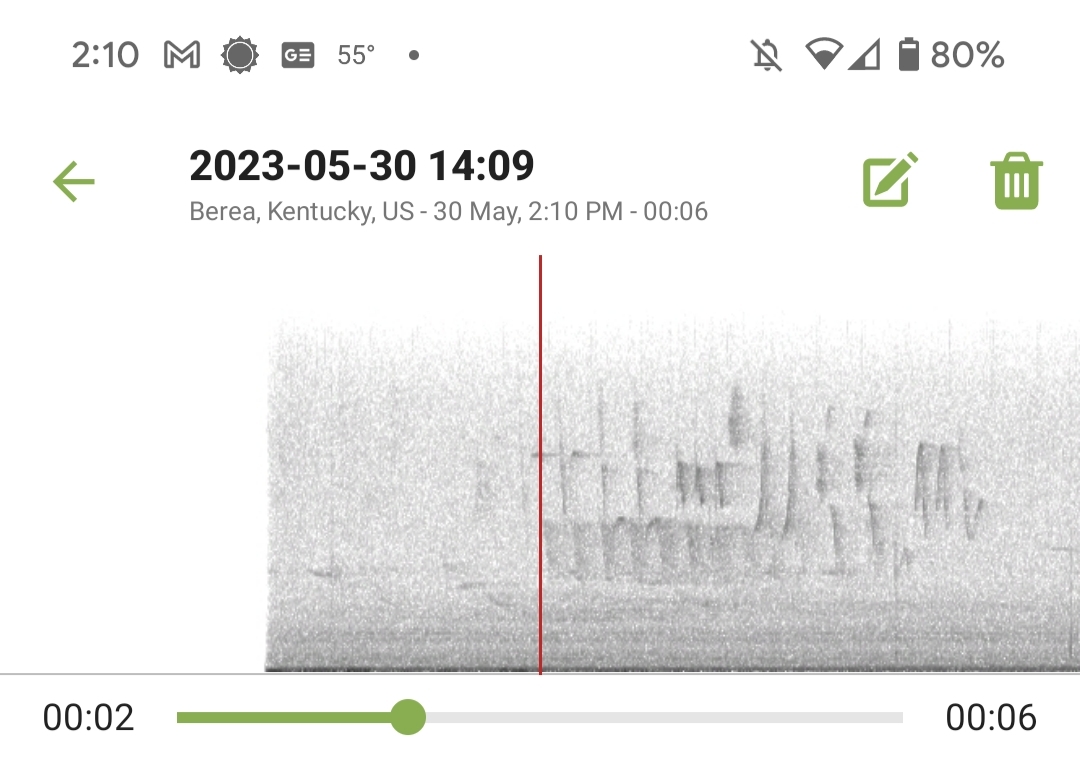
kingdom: Animalia
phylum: Chordata
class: Aves
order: Passeriformes
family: Cardinalidae
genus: Passerina
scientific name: Passerina cyanea
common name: Indigo bunting
